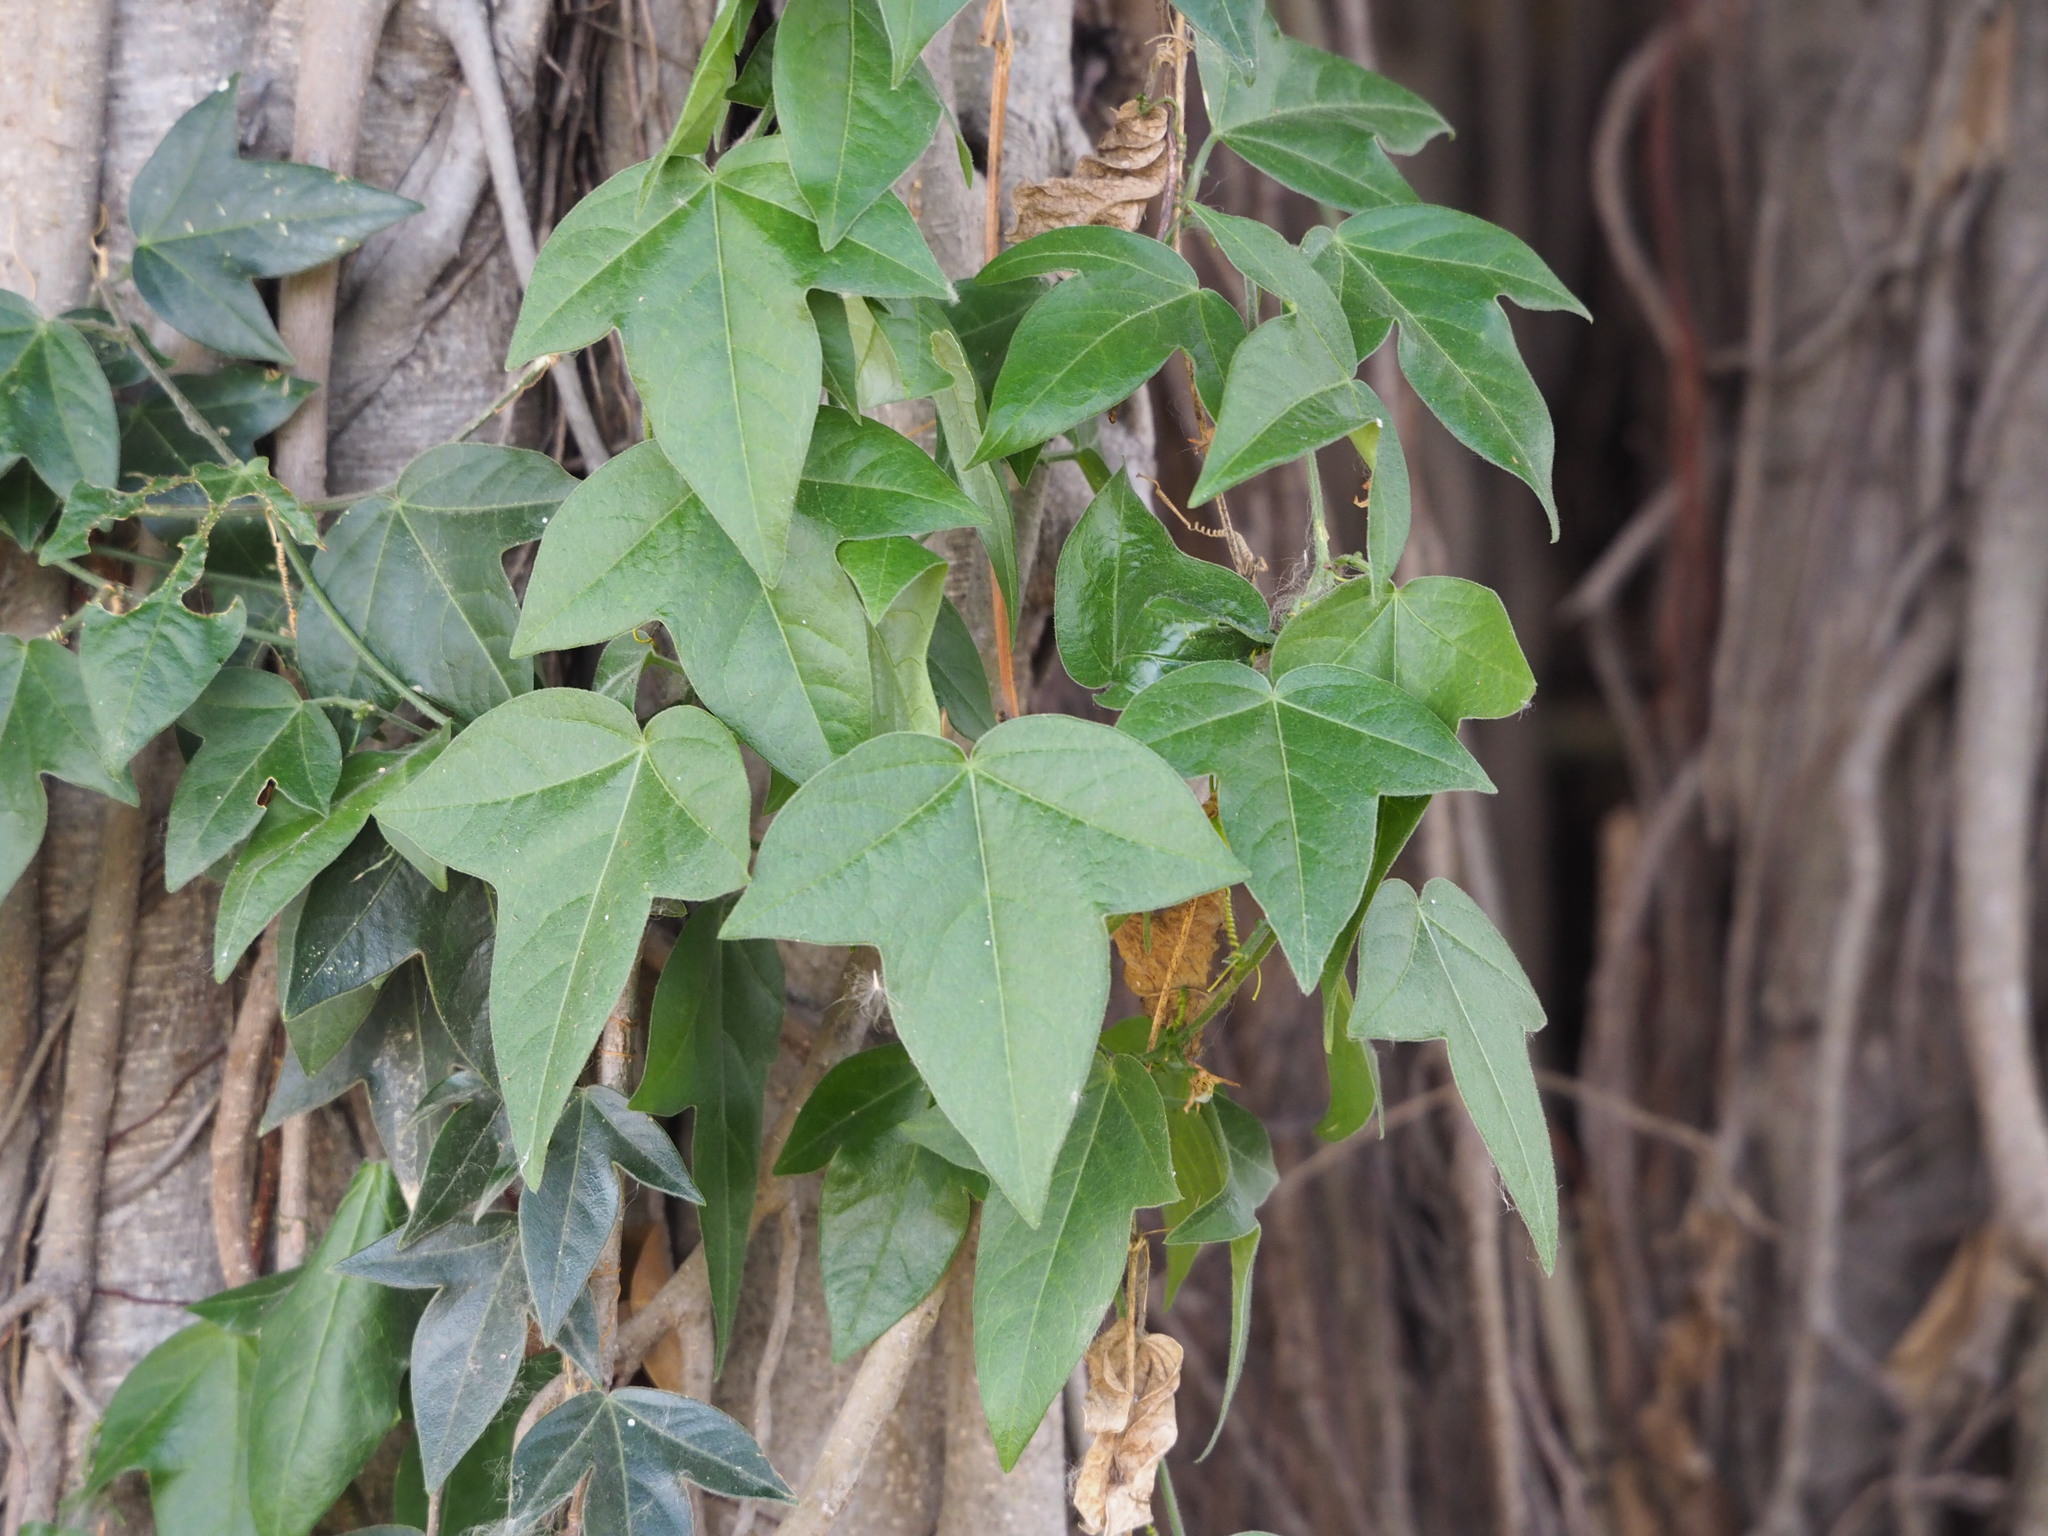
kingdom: Plantae
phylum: Tracheophyta
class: Magnoliopsida
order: Malpighiales
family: Passifloraceae
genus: Passiflora
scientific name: Passiflora suberosa
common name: Wild passionfruit
